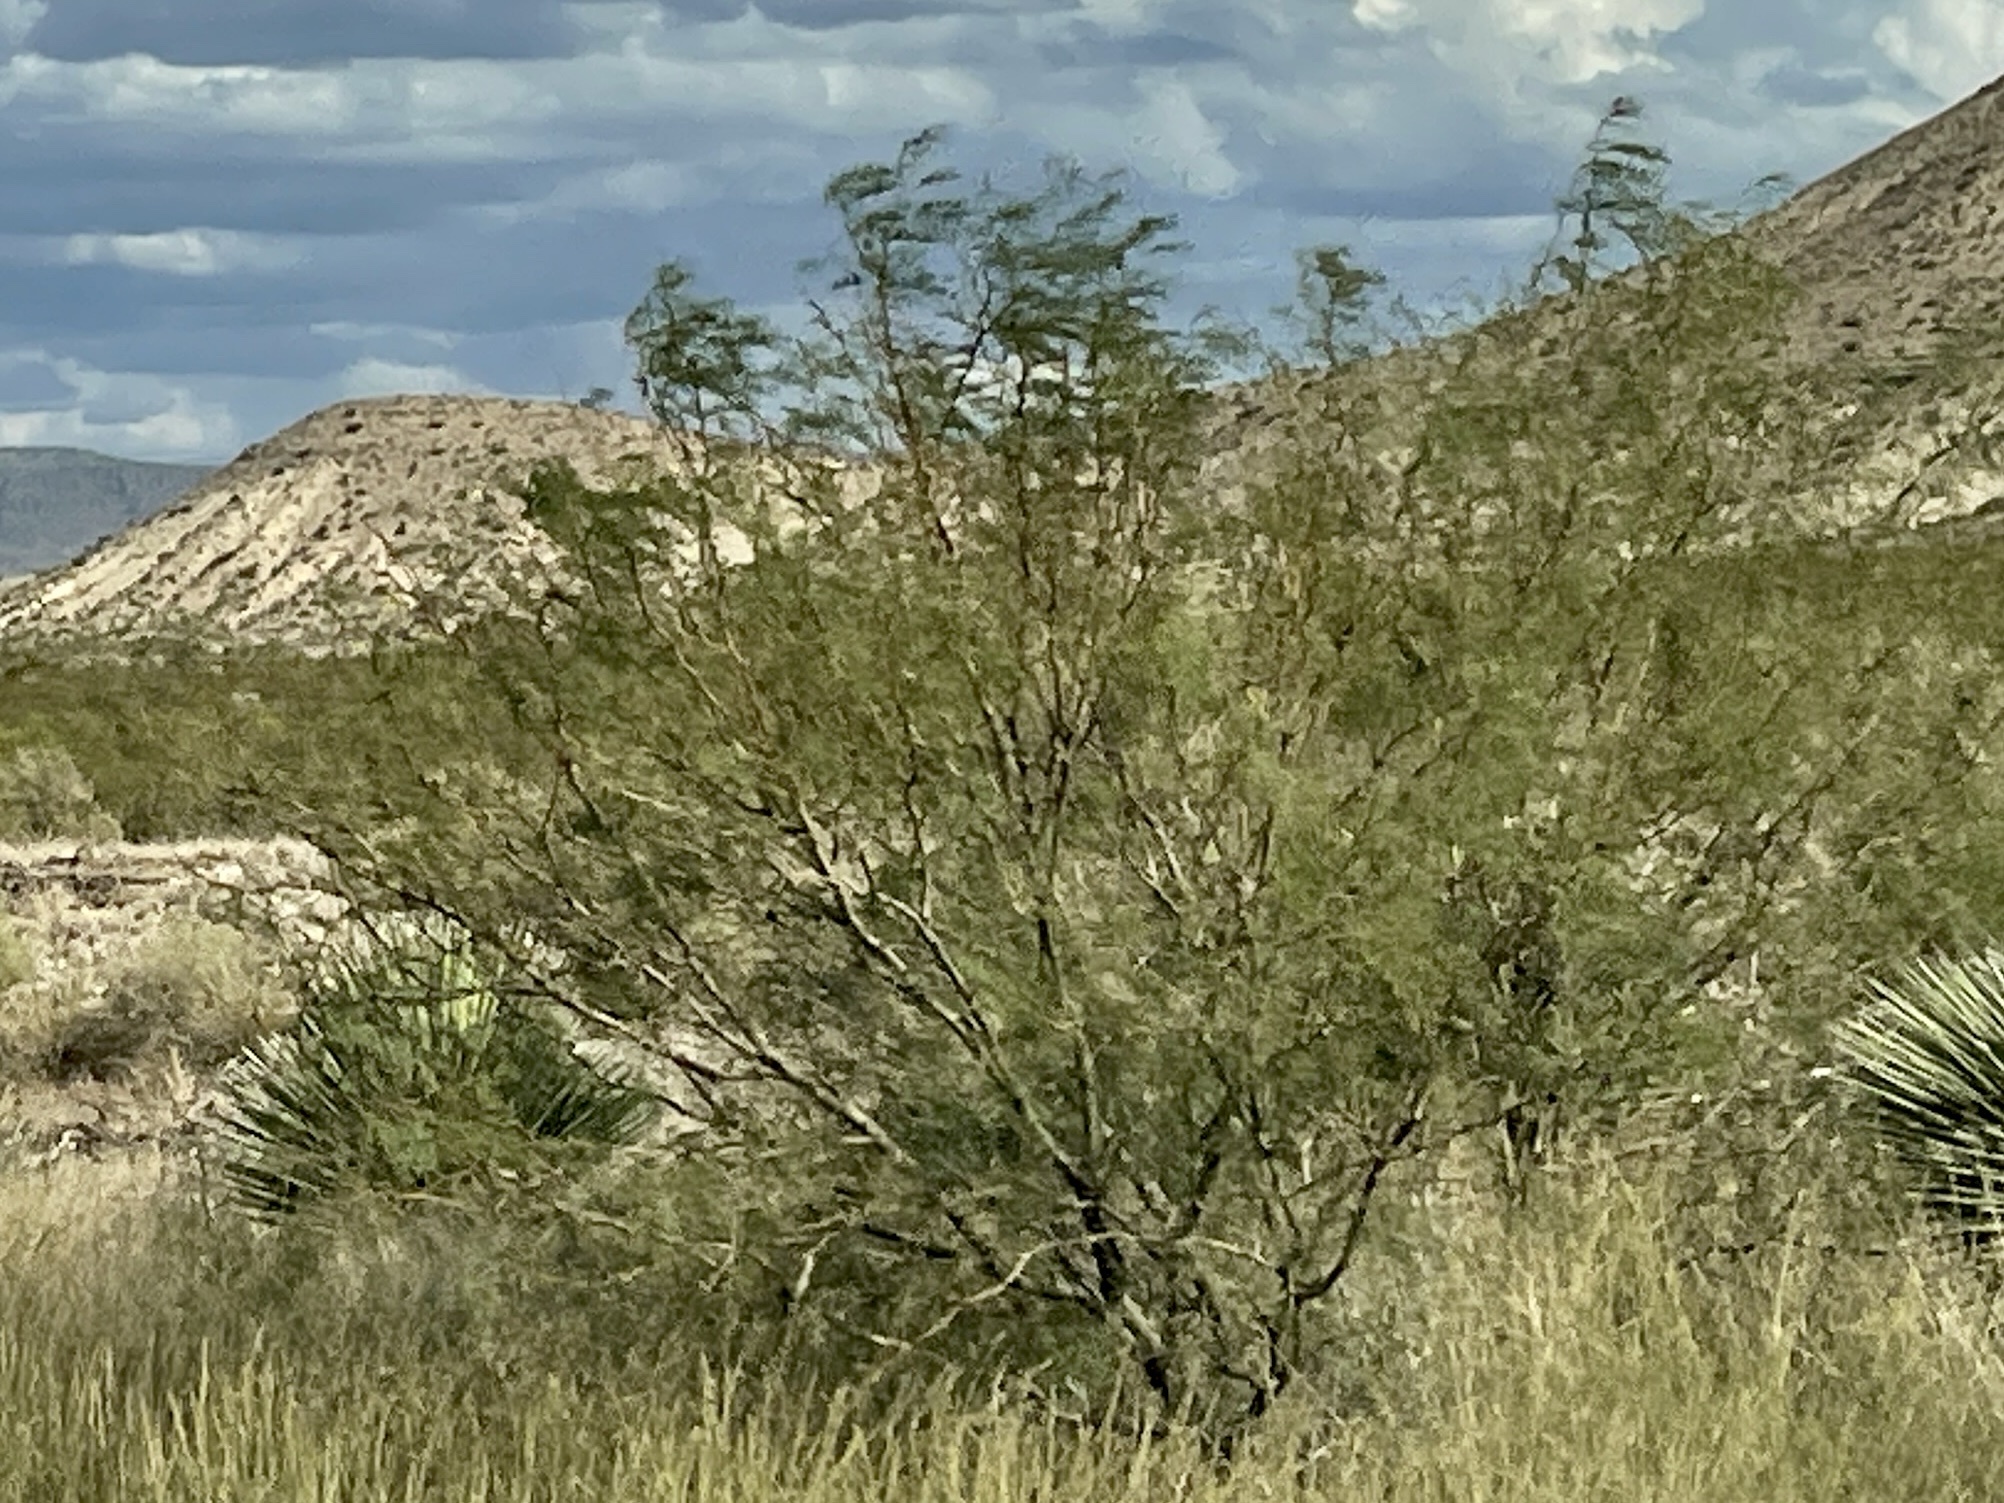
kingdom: Plantae
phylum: Tracheophyta
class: Magnoliopsida
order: Fabales
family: Fabaceae
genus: Prosopis
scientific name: Prosopis glandulosa
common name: Honey mesquite
